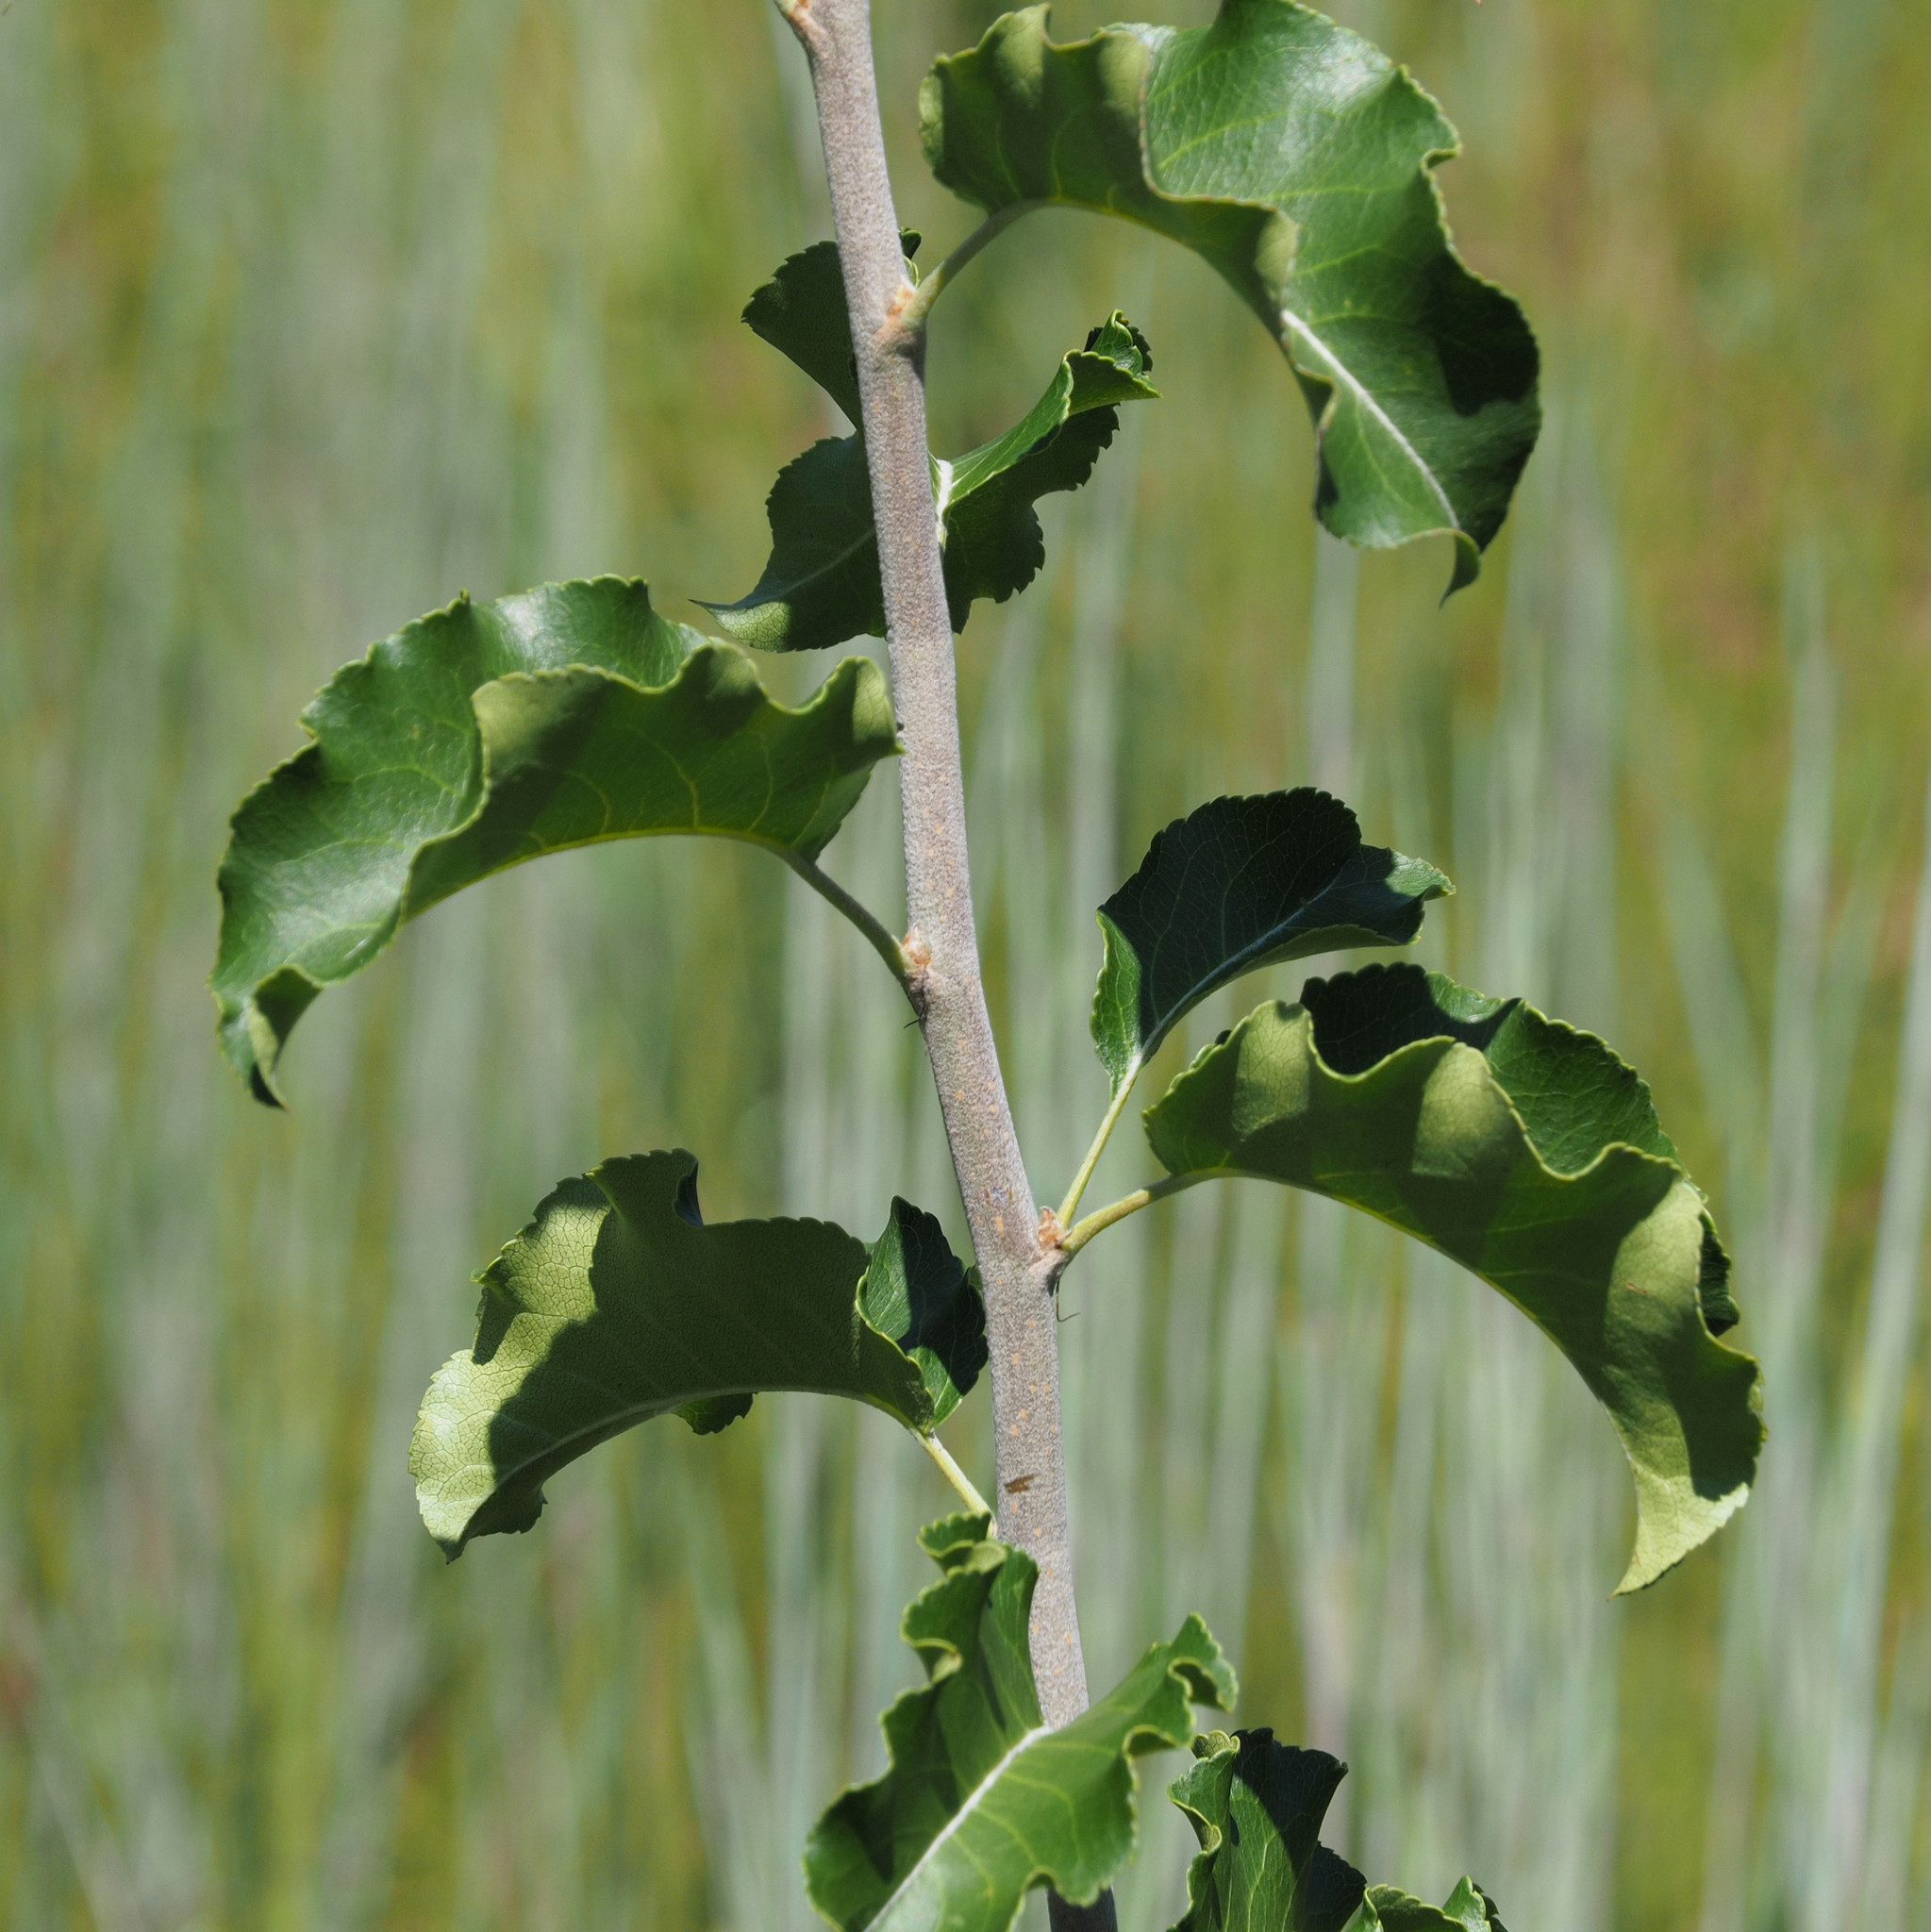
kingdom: Plantae
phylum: Tracheophyta
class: Magnoliopsida
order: Rosales
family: Rosaceae
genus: Pyrus
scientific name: Pyrus calleryana
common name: Callery pear
